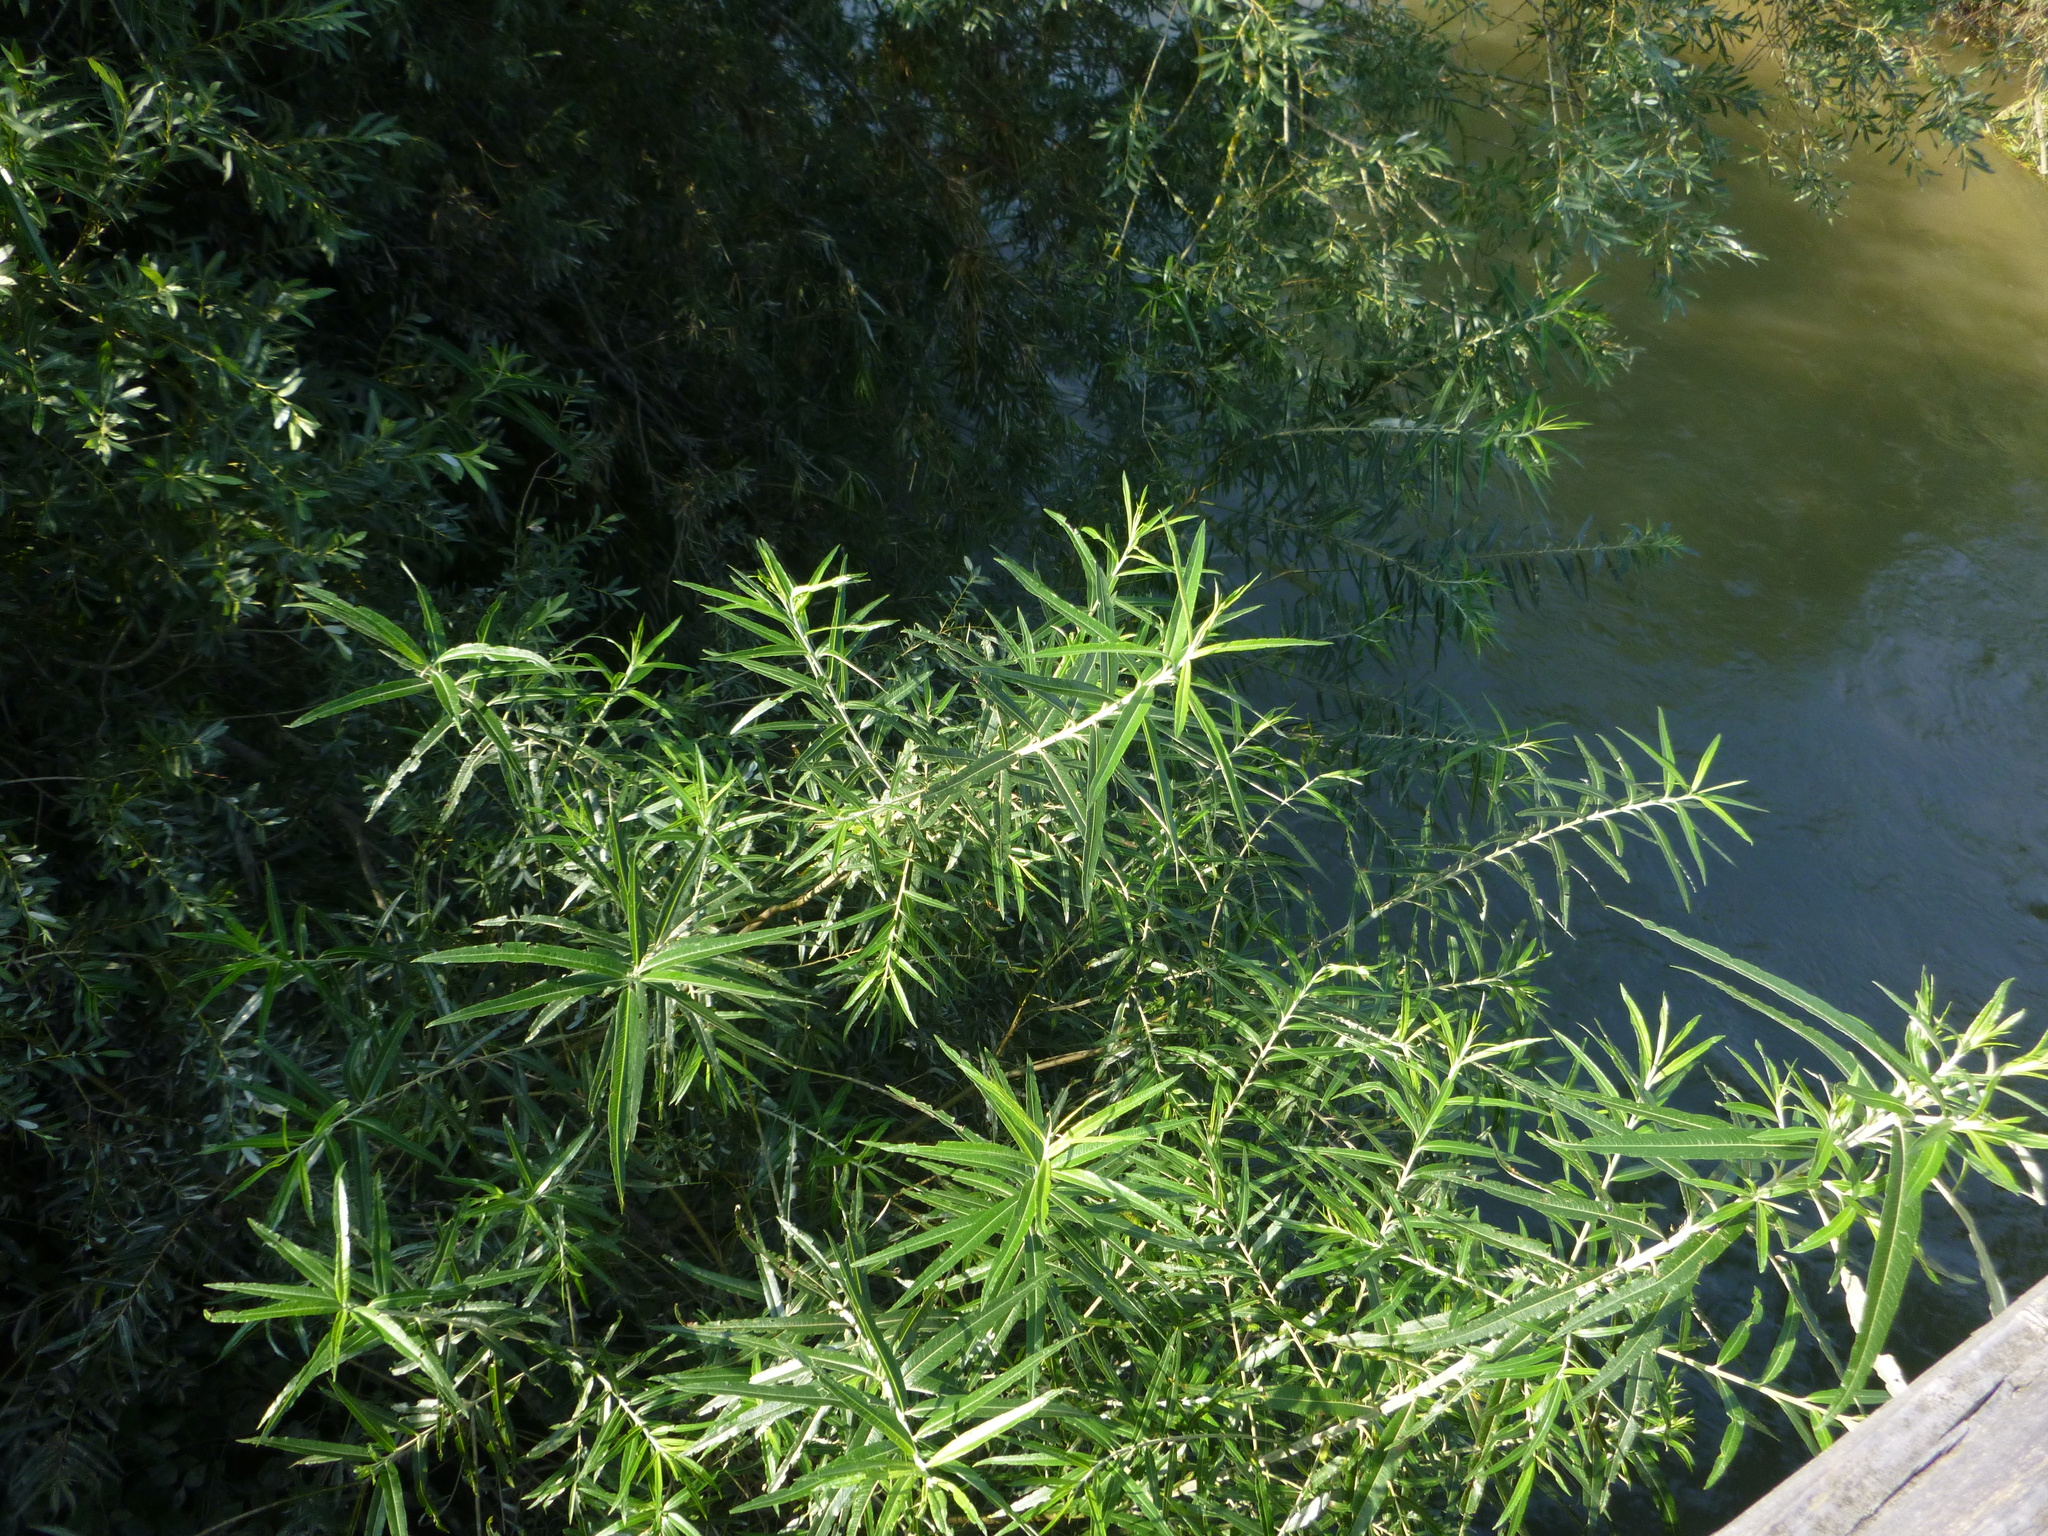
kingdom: Plantae
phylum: Tracheophyta
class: Magnoliopsida
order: Malpighiales
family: Salicaceae
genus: Salix
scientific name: Salix viminalis
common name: Osier
